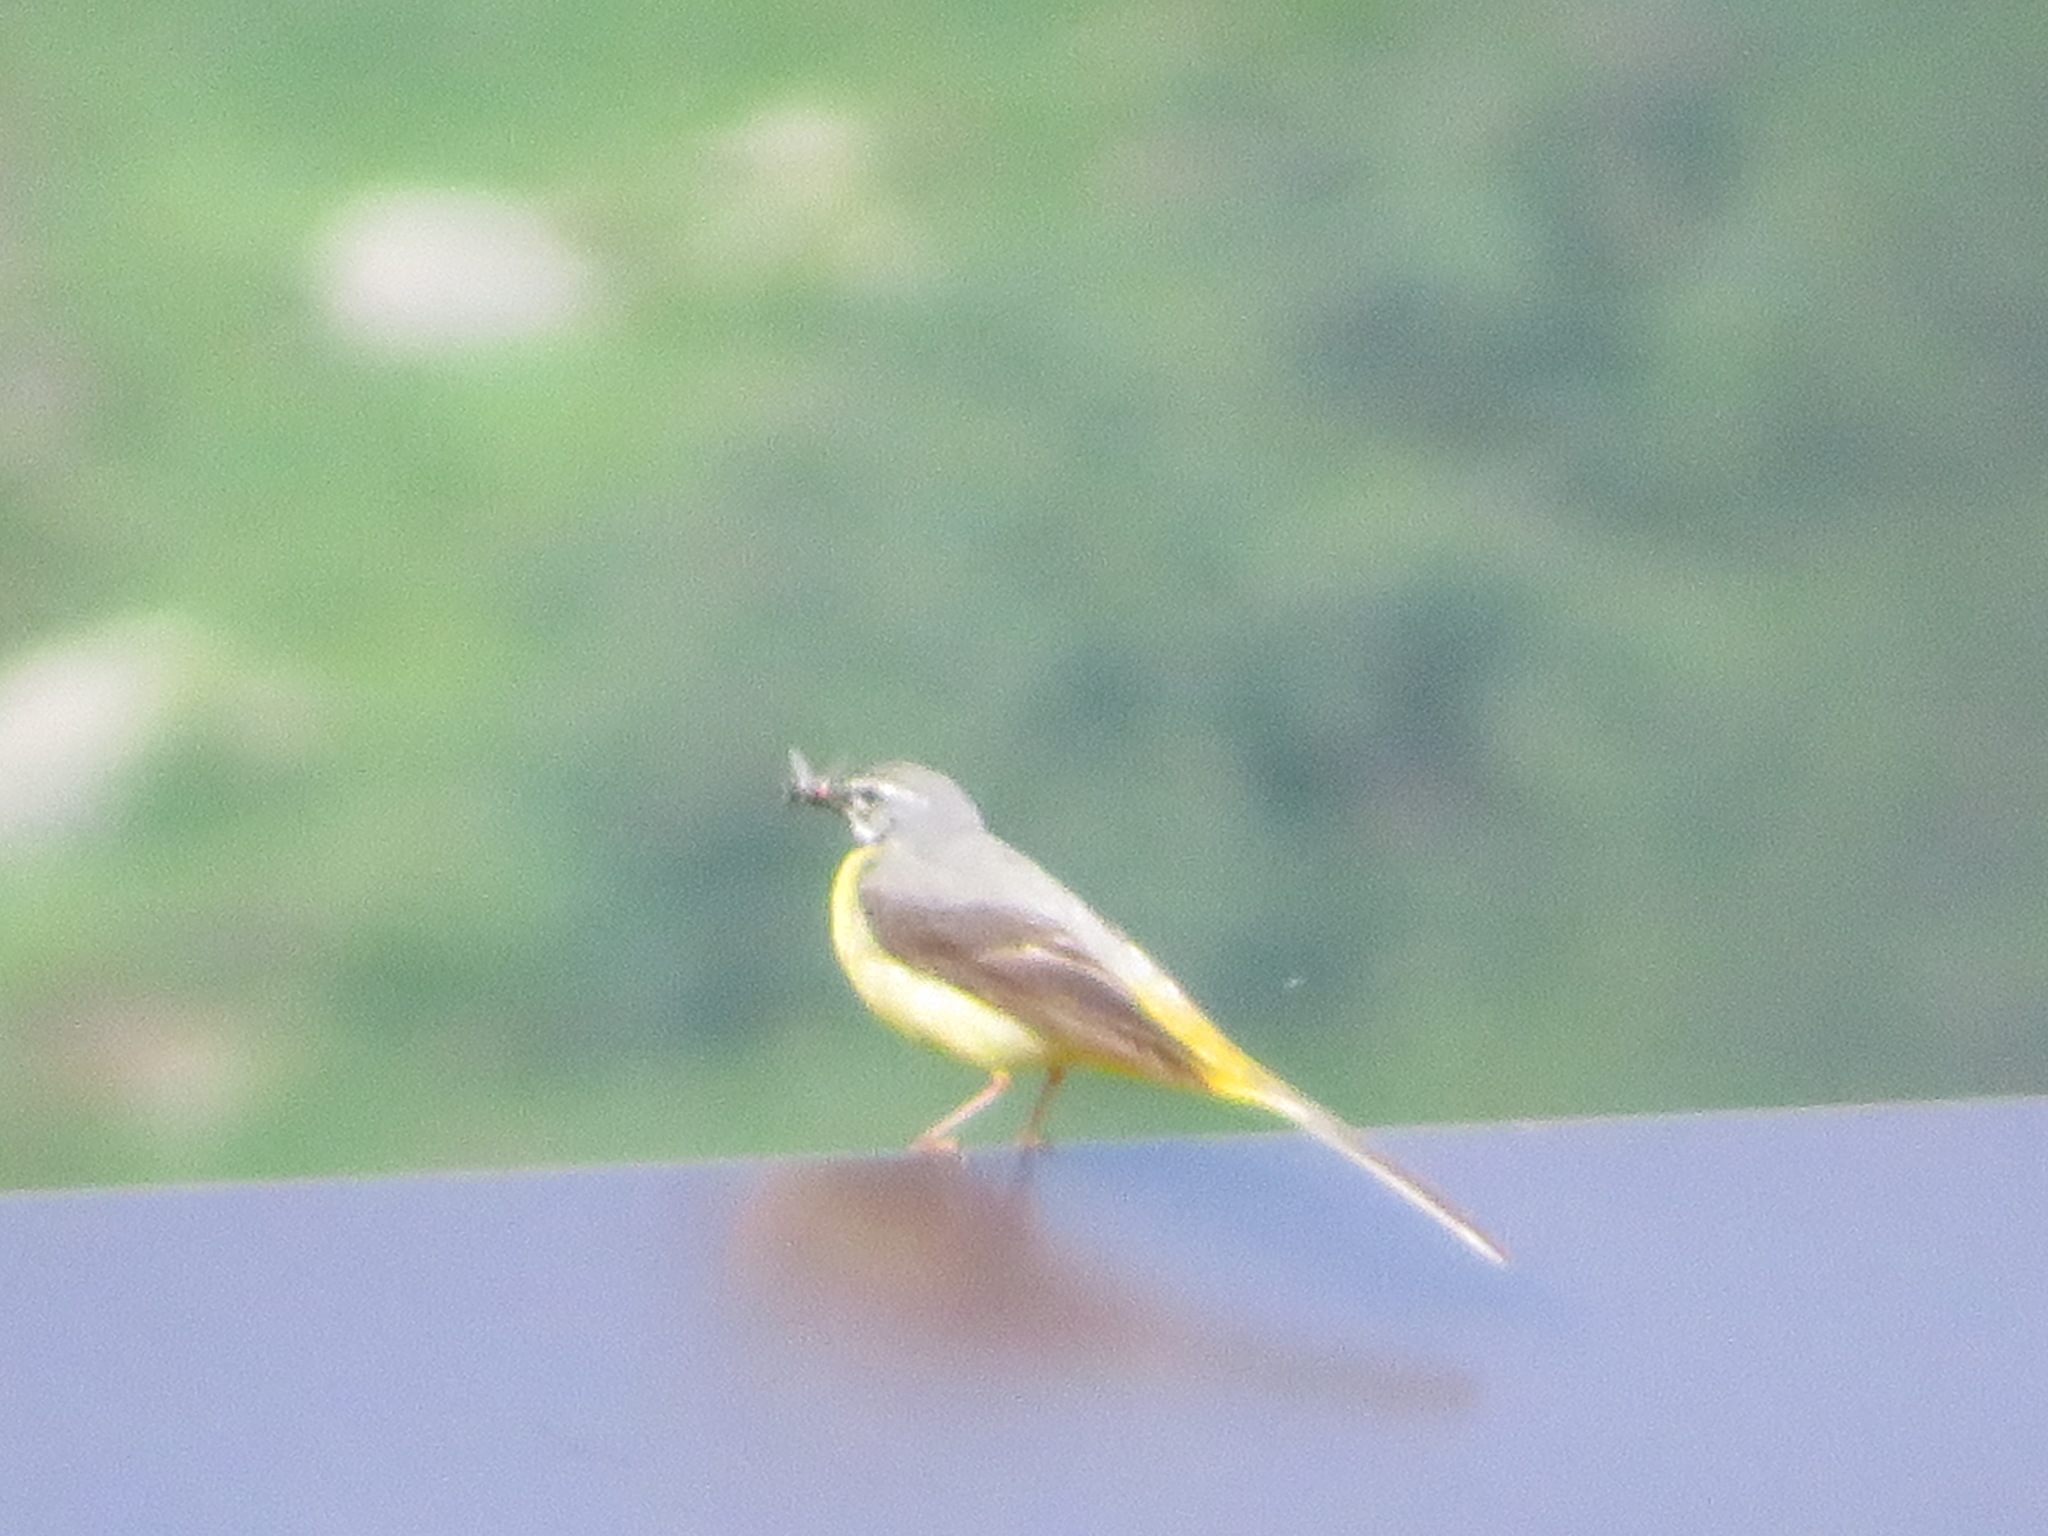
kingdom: Animalia
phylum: Chordata
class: Aves
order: Passeriformes
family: Motacillidae
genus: Motacilla
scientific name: Motacilla cinerea
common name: Grey wagtail
